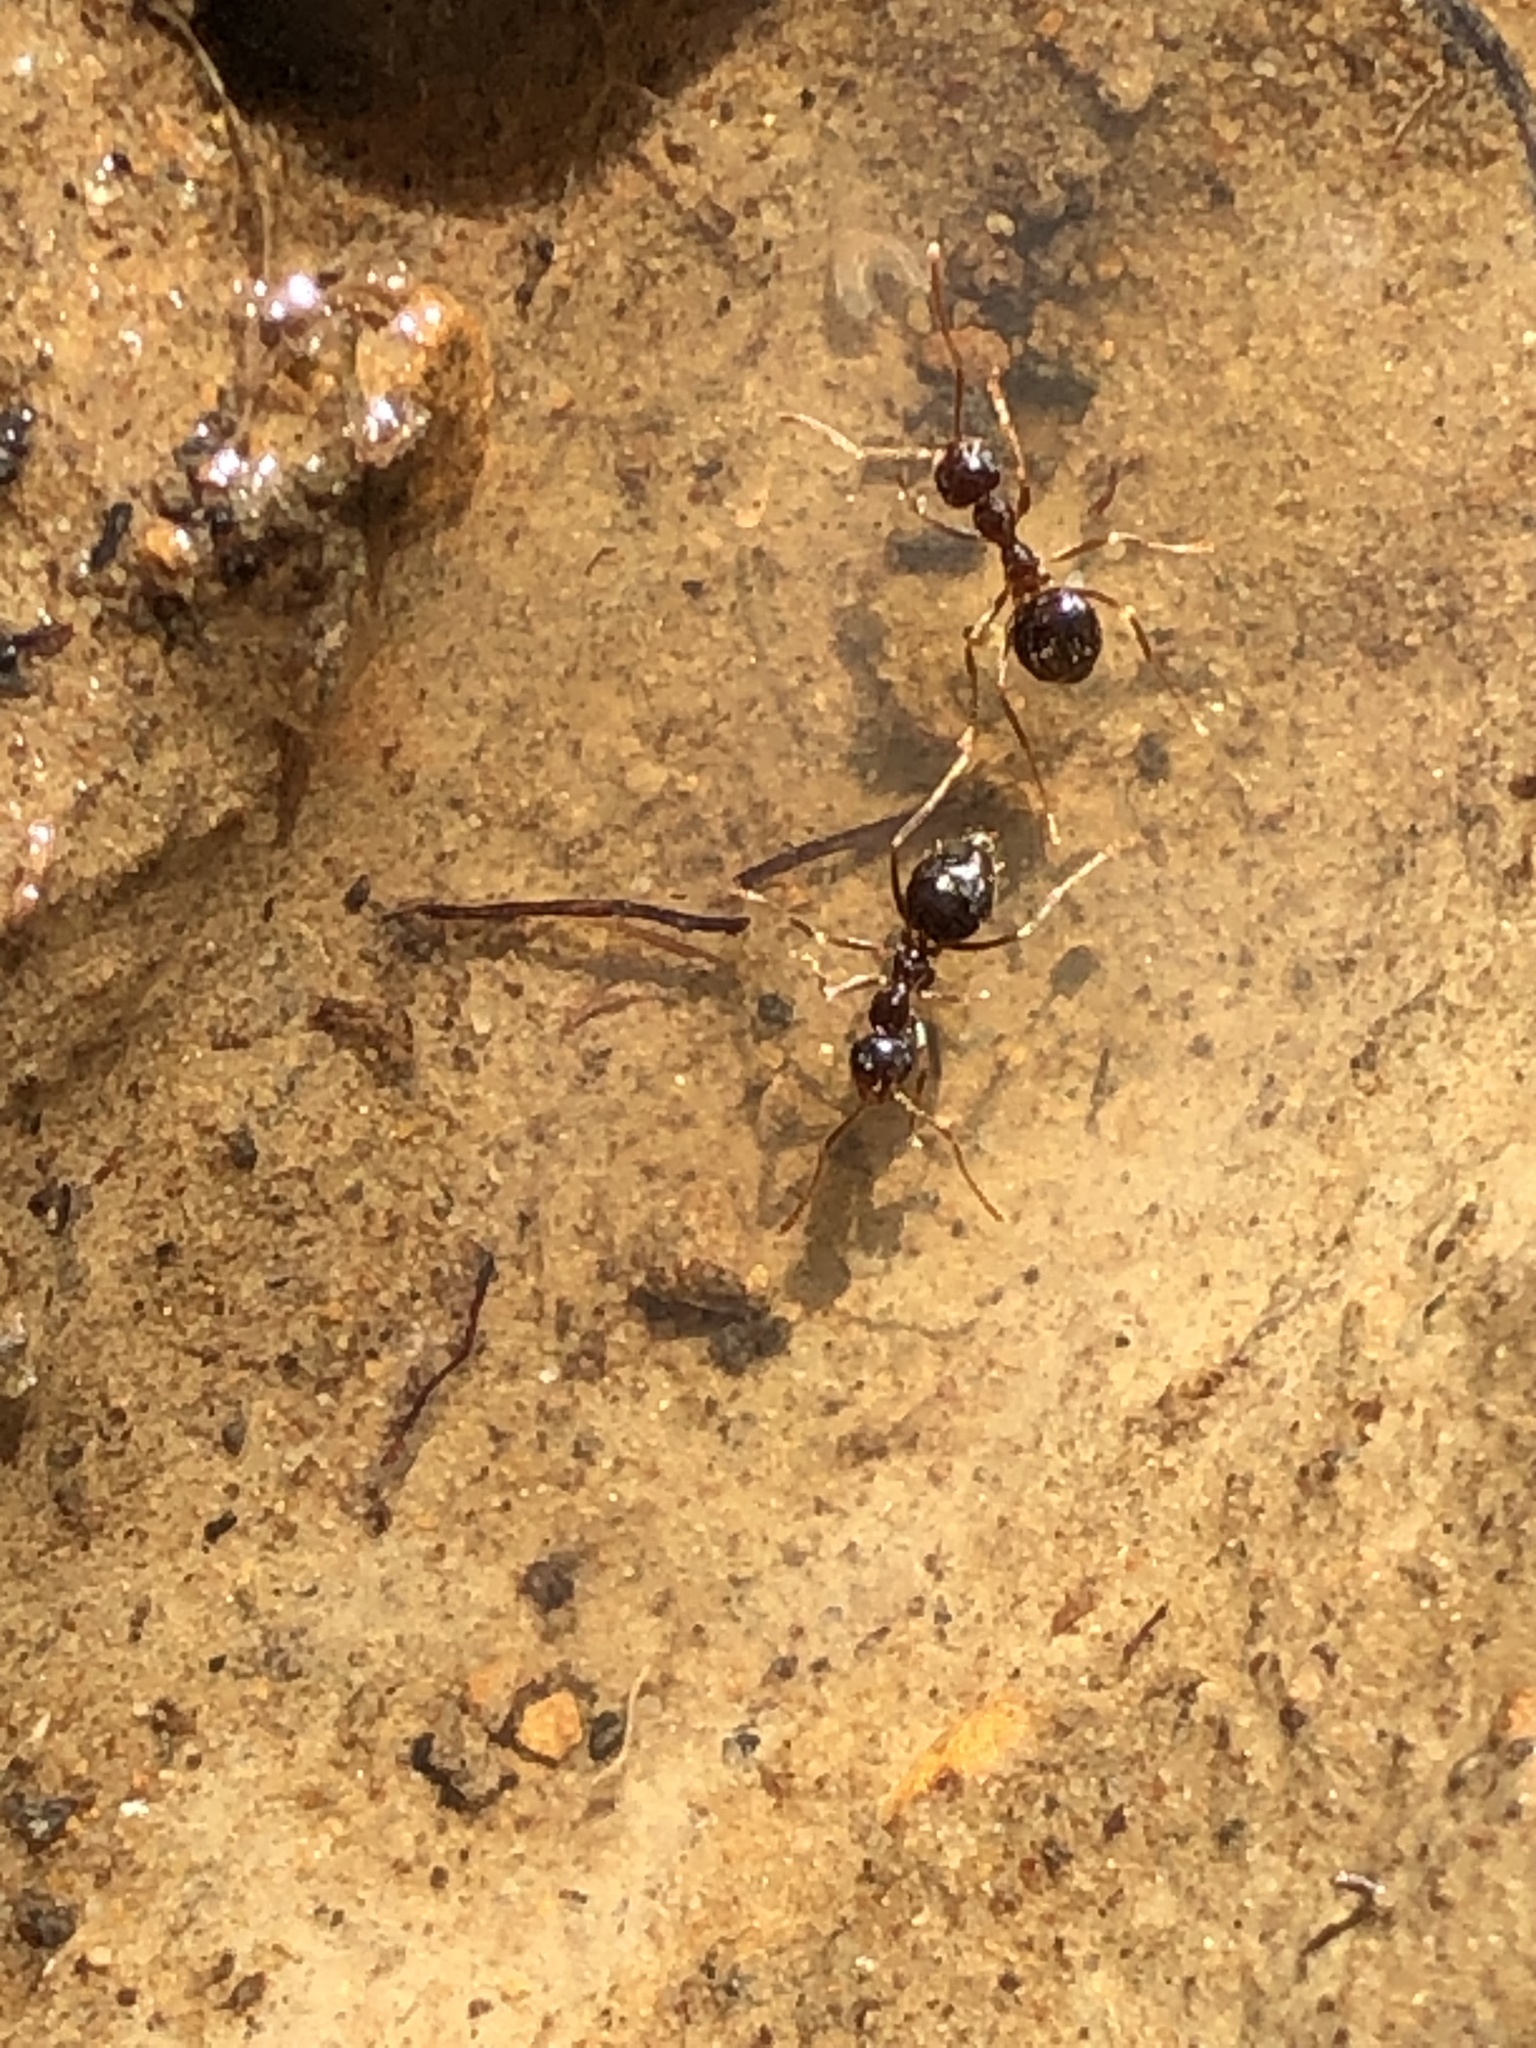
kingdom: Animalia
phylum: Arthropoda
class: Insecta
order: Hymenoptera
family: Formicidae
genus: Prenolepis
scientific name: Prenolepis imparis
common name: Small honey ant
